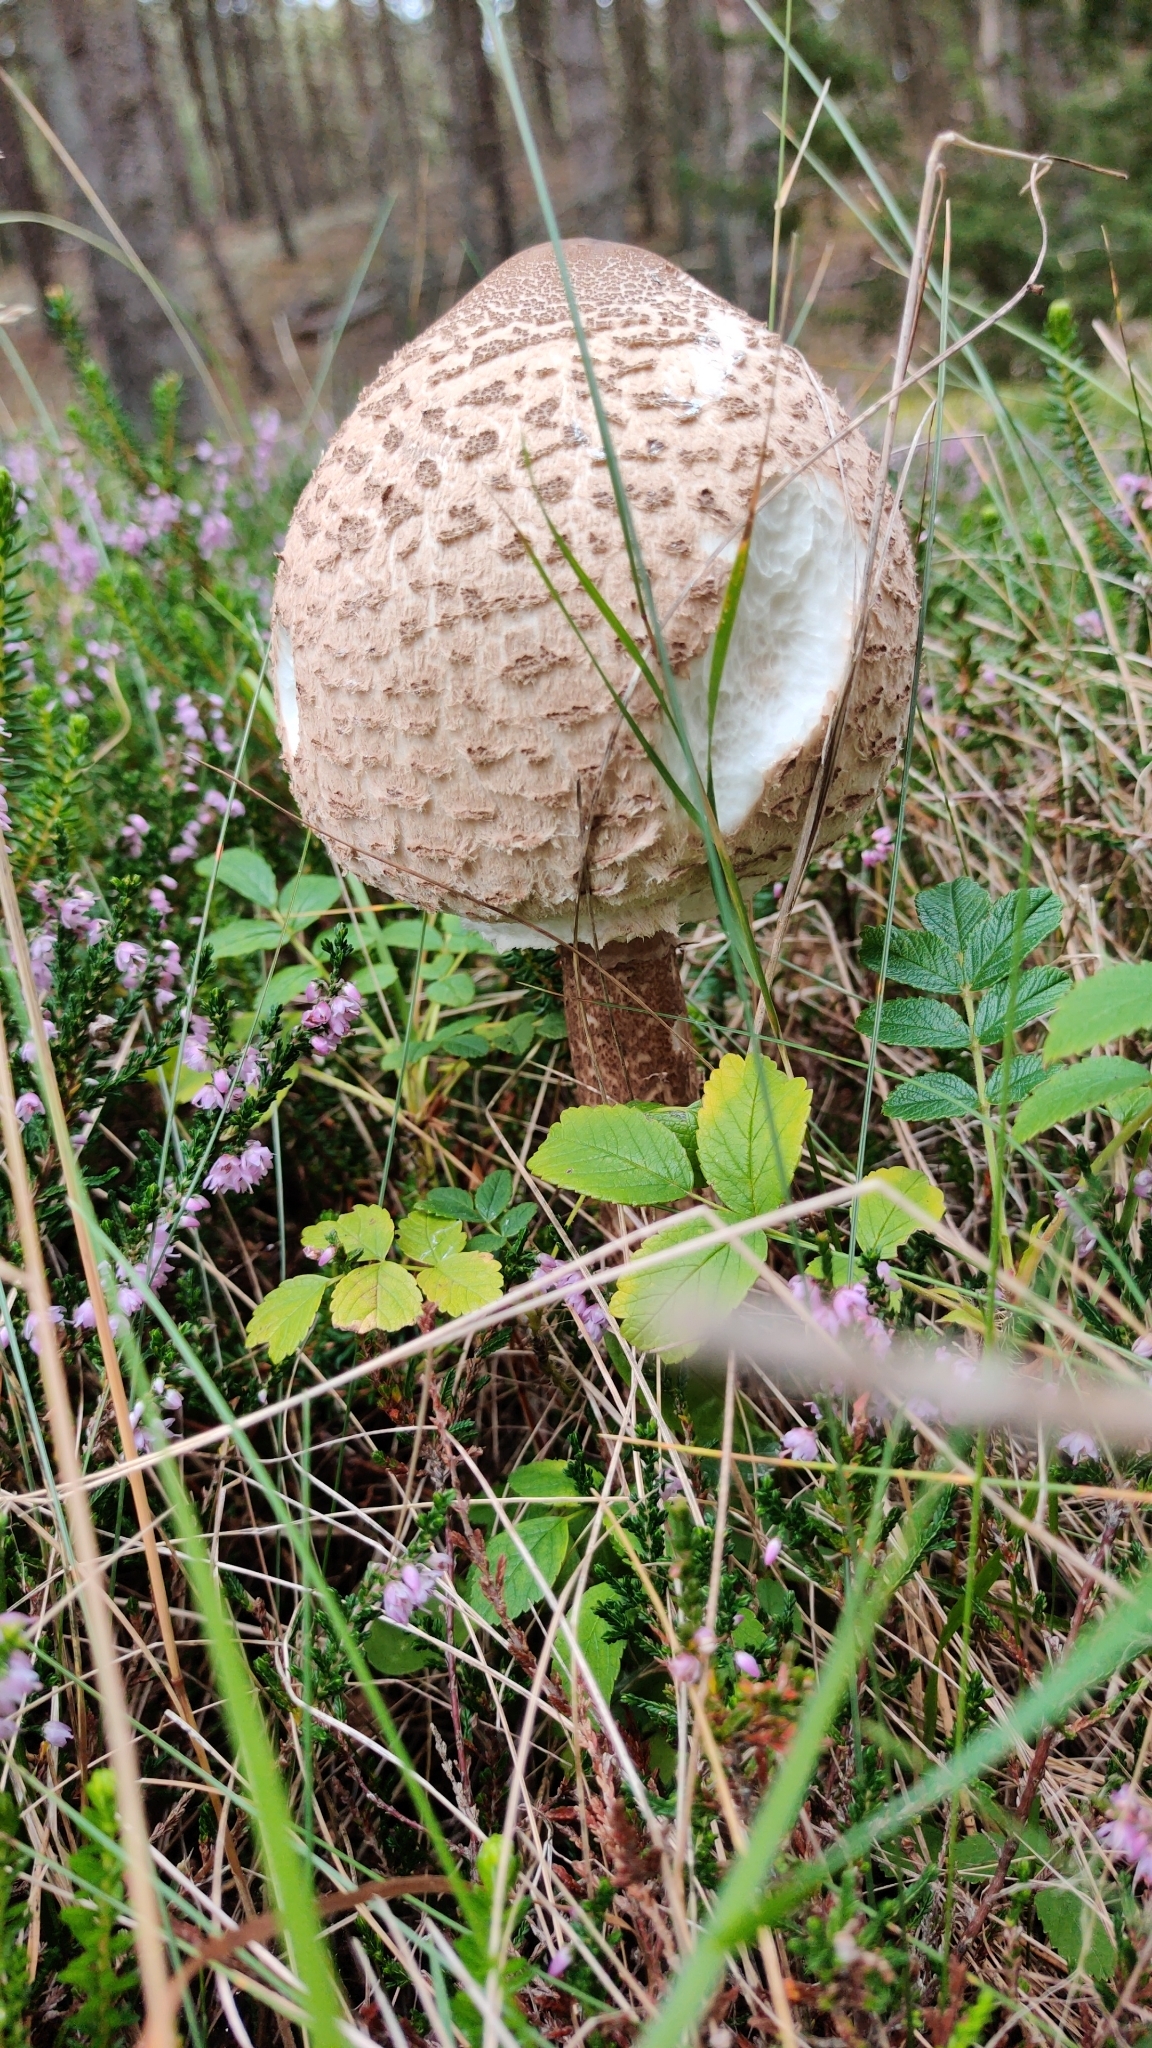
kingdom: Fungi
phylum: Basidiomycota
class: Agaricomycetes
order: Agaricales
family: Agaricaceae
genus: Macrolepiota
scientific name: Macrolepiota procera
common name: Parasol
